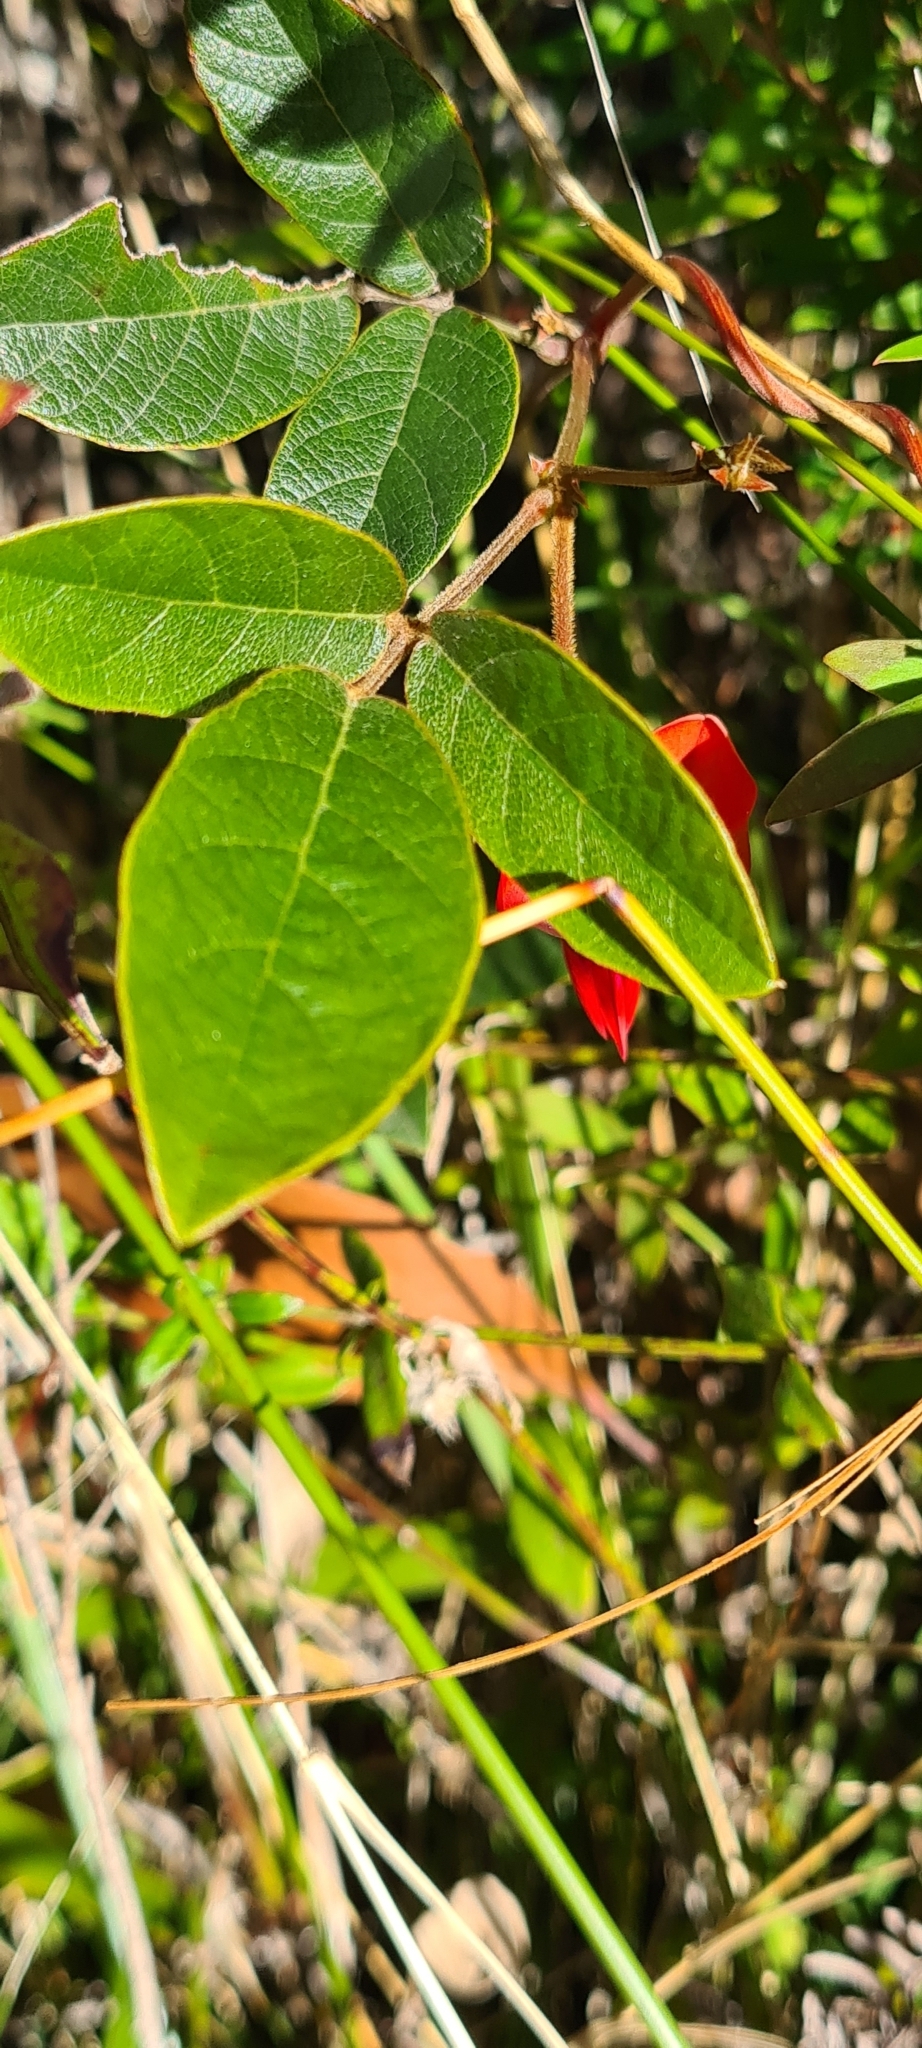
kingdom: Plantae
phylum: Tracheophyta
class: Magnoliopsida
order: Fabales
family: Fabaceae
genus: Kennedia
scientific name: Kennedia rubicunda
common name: Red kennedy-pea
